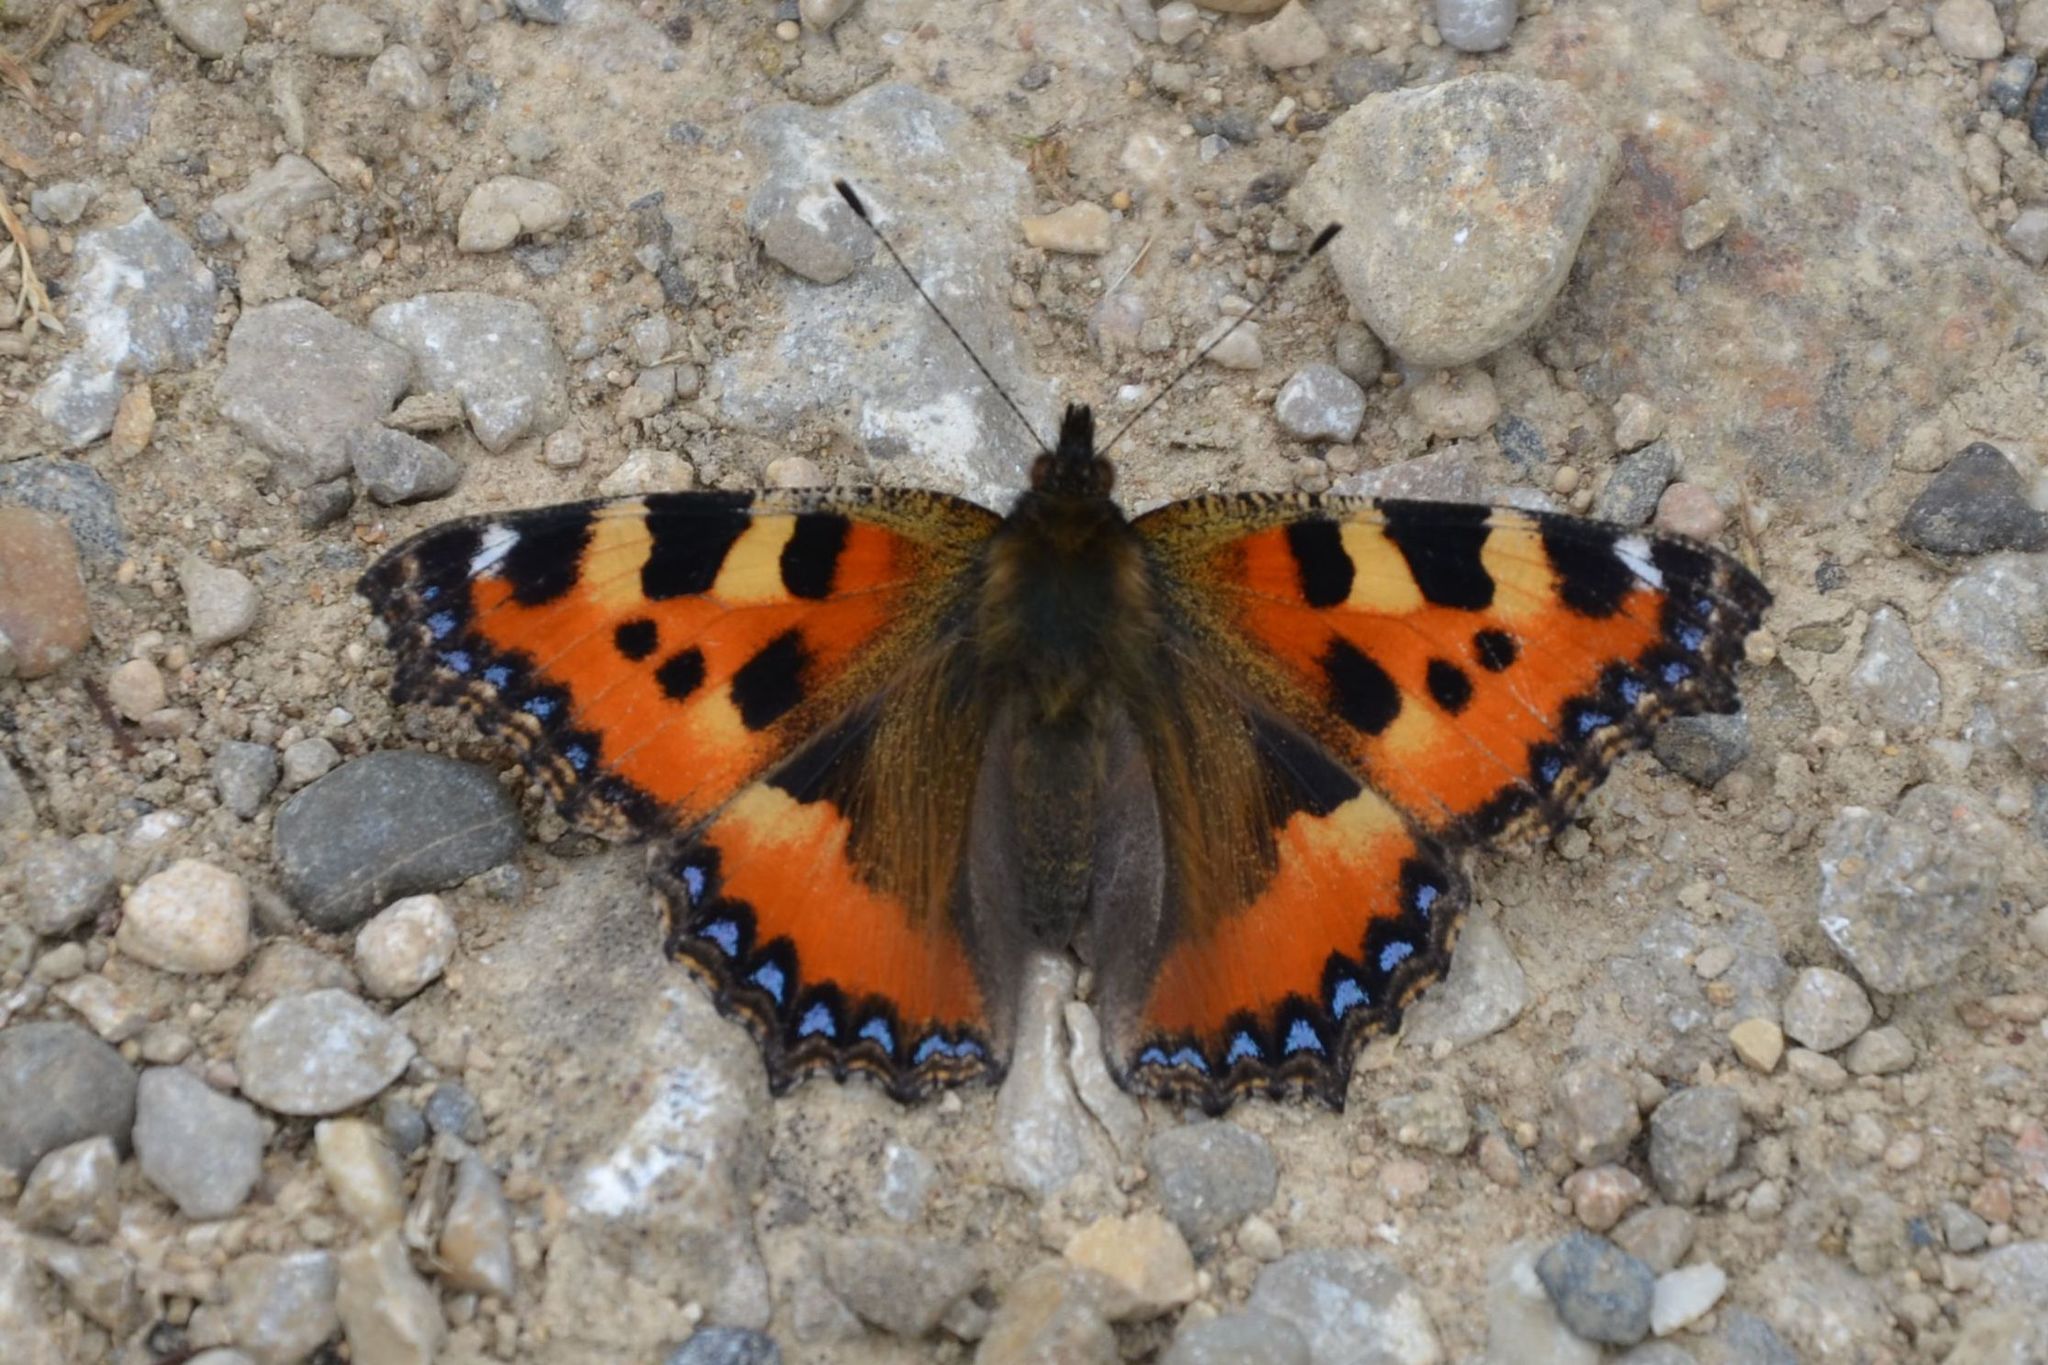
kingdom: Animalia
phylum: Arthropoda
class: Insecta
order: Lepidoptera
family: Nymphalidae
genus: Aglais
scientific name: Aglais urticae
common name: Small tortoiseshell
